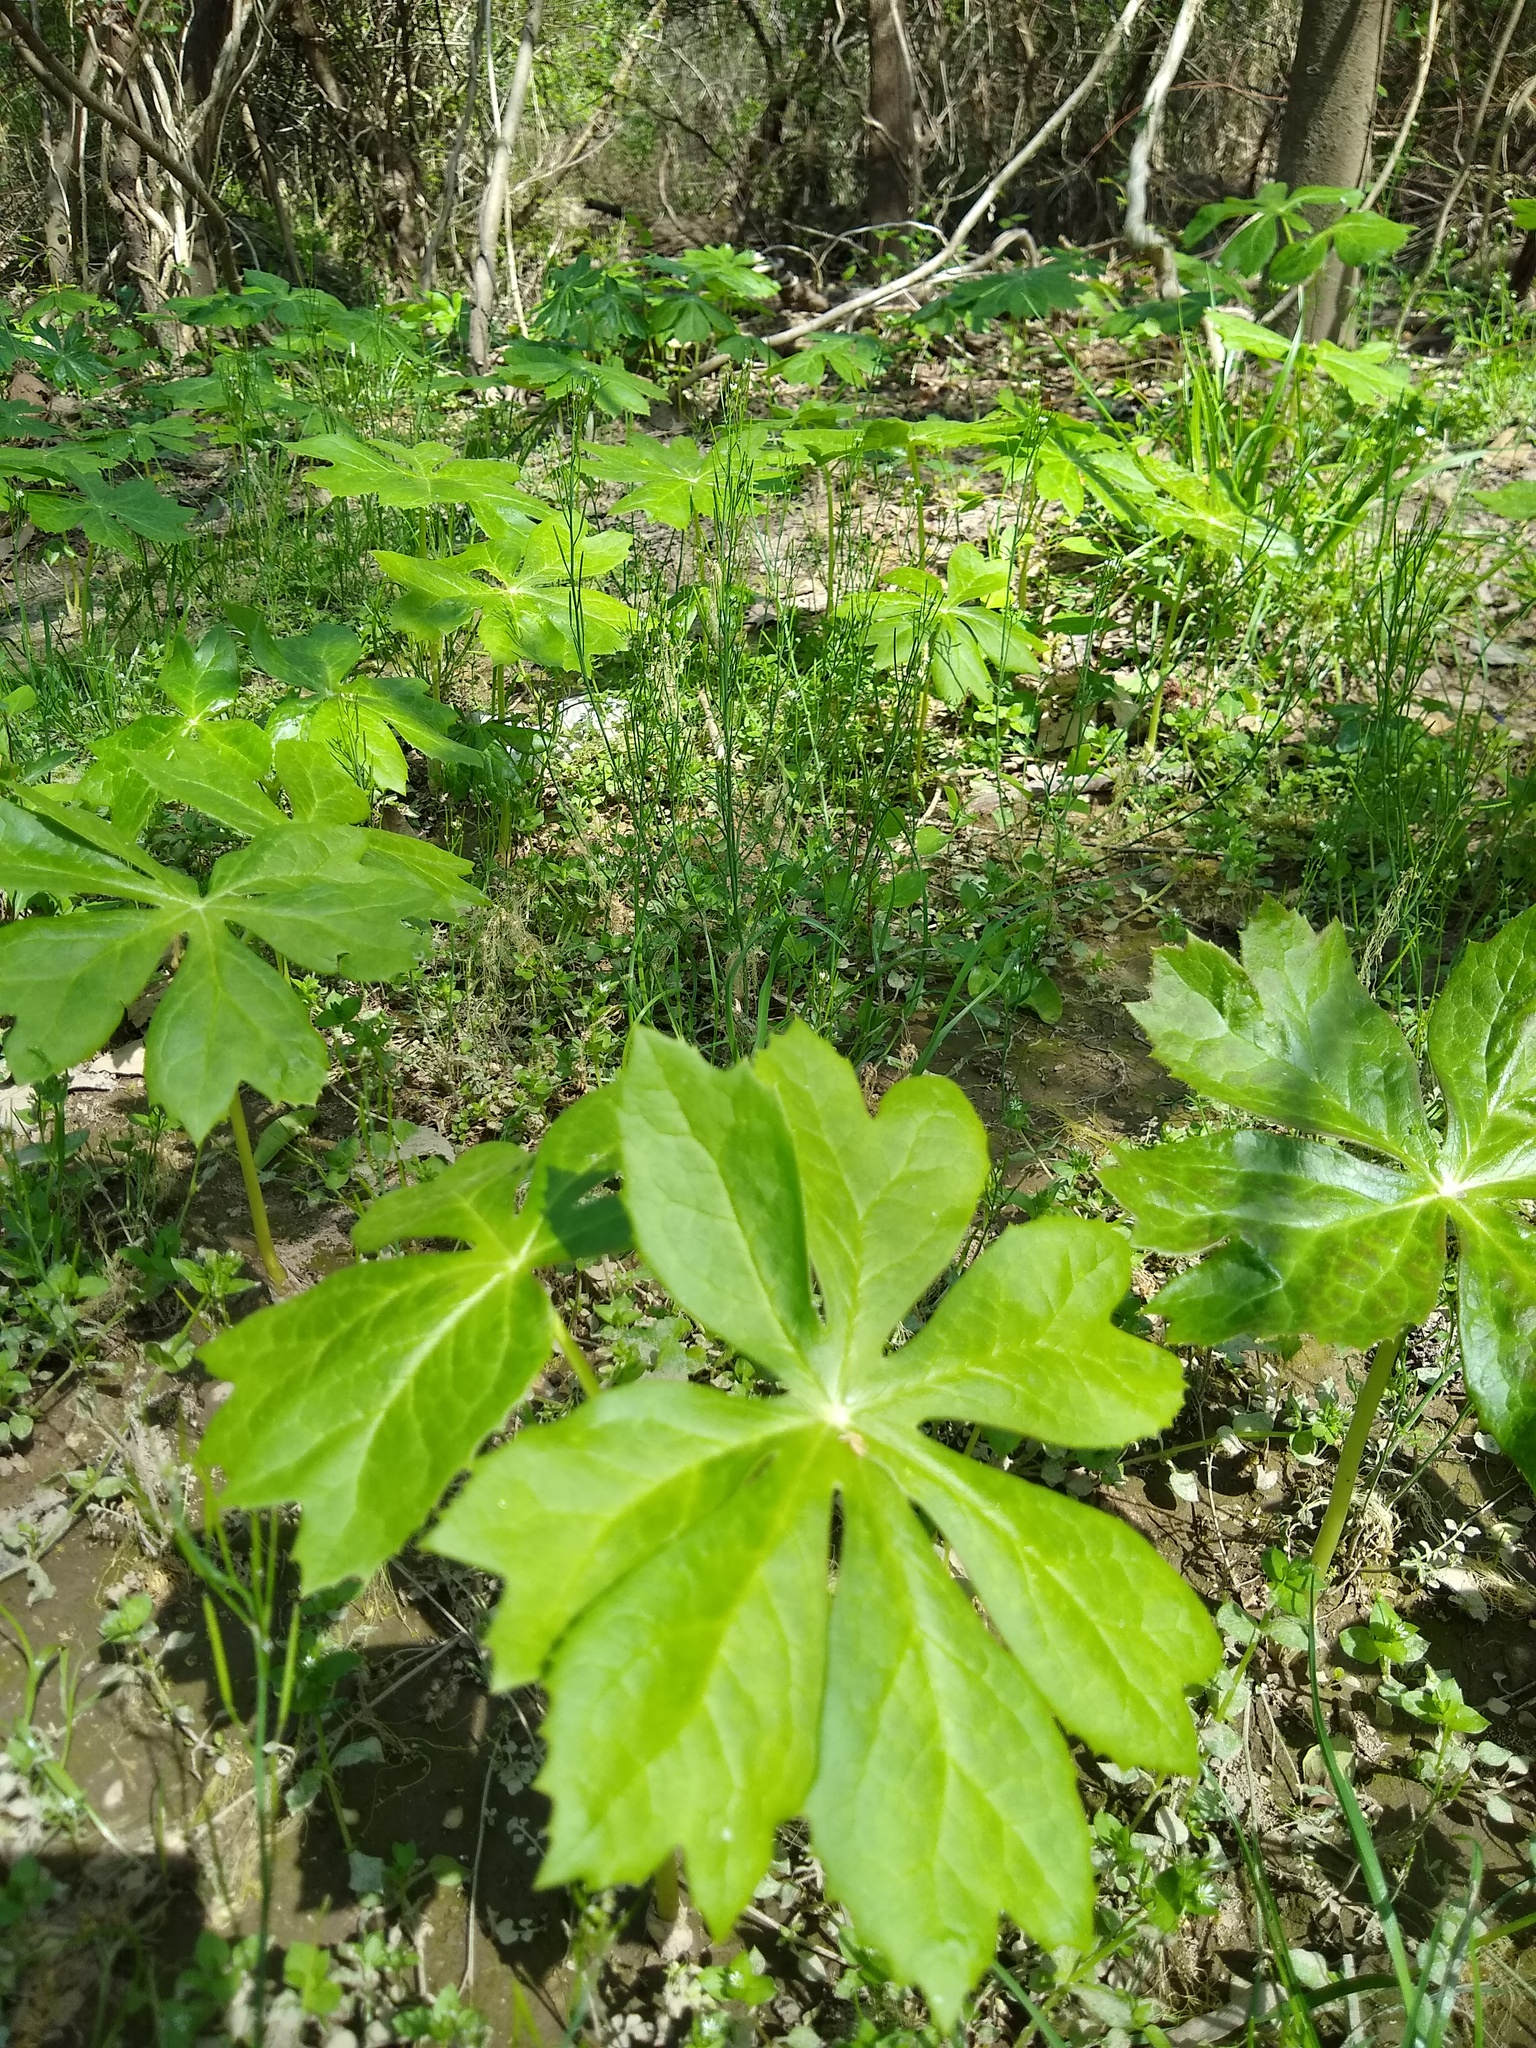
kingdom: Plantae
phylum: Tracheophyta
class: Magnoliopsida
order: Ranunculales
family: Berberidaceae
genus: Podophyllum
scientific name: Podophyllum peltatum
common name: Wild mandrake
